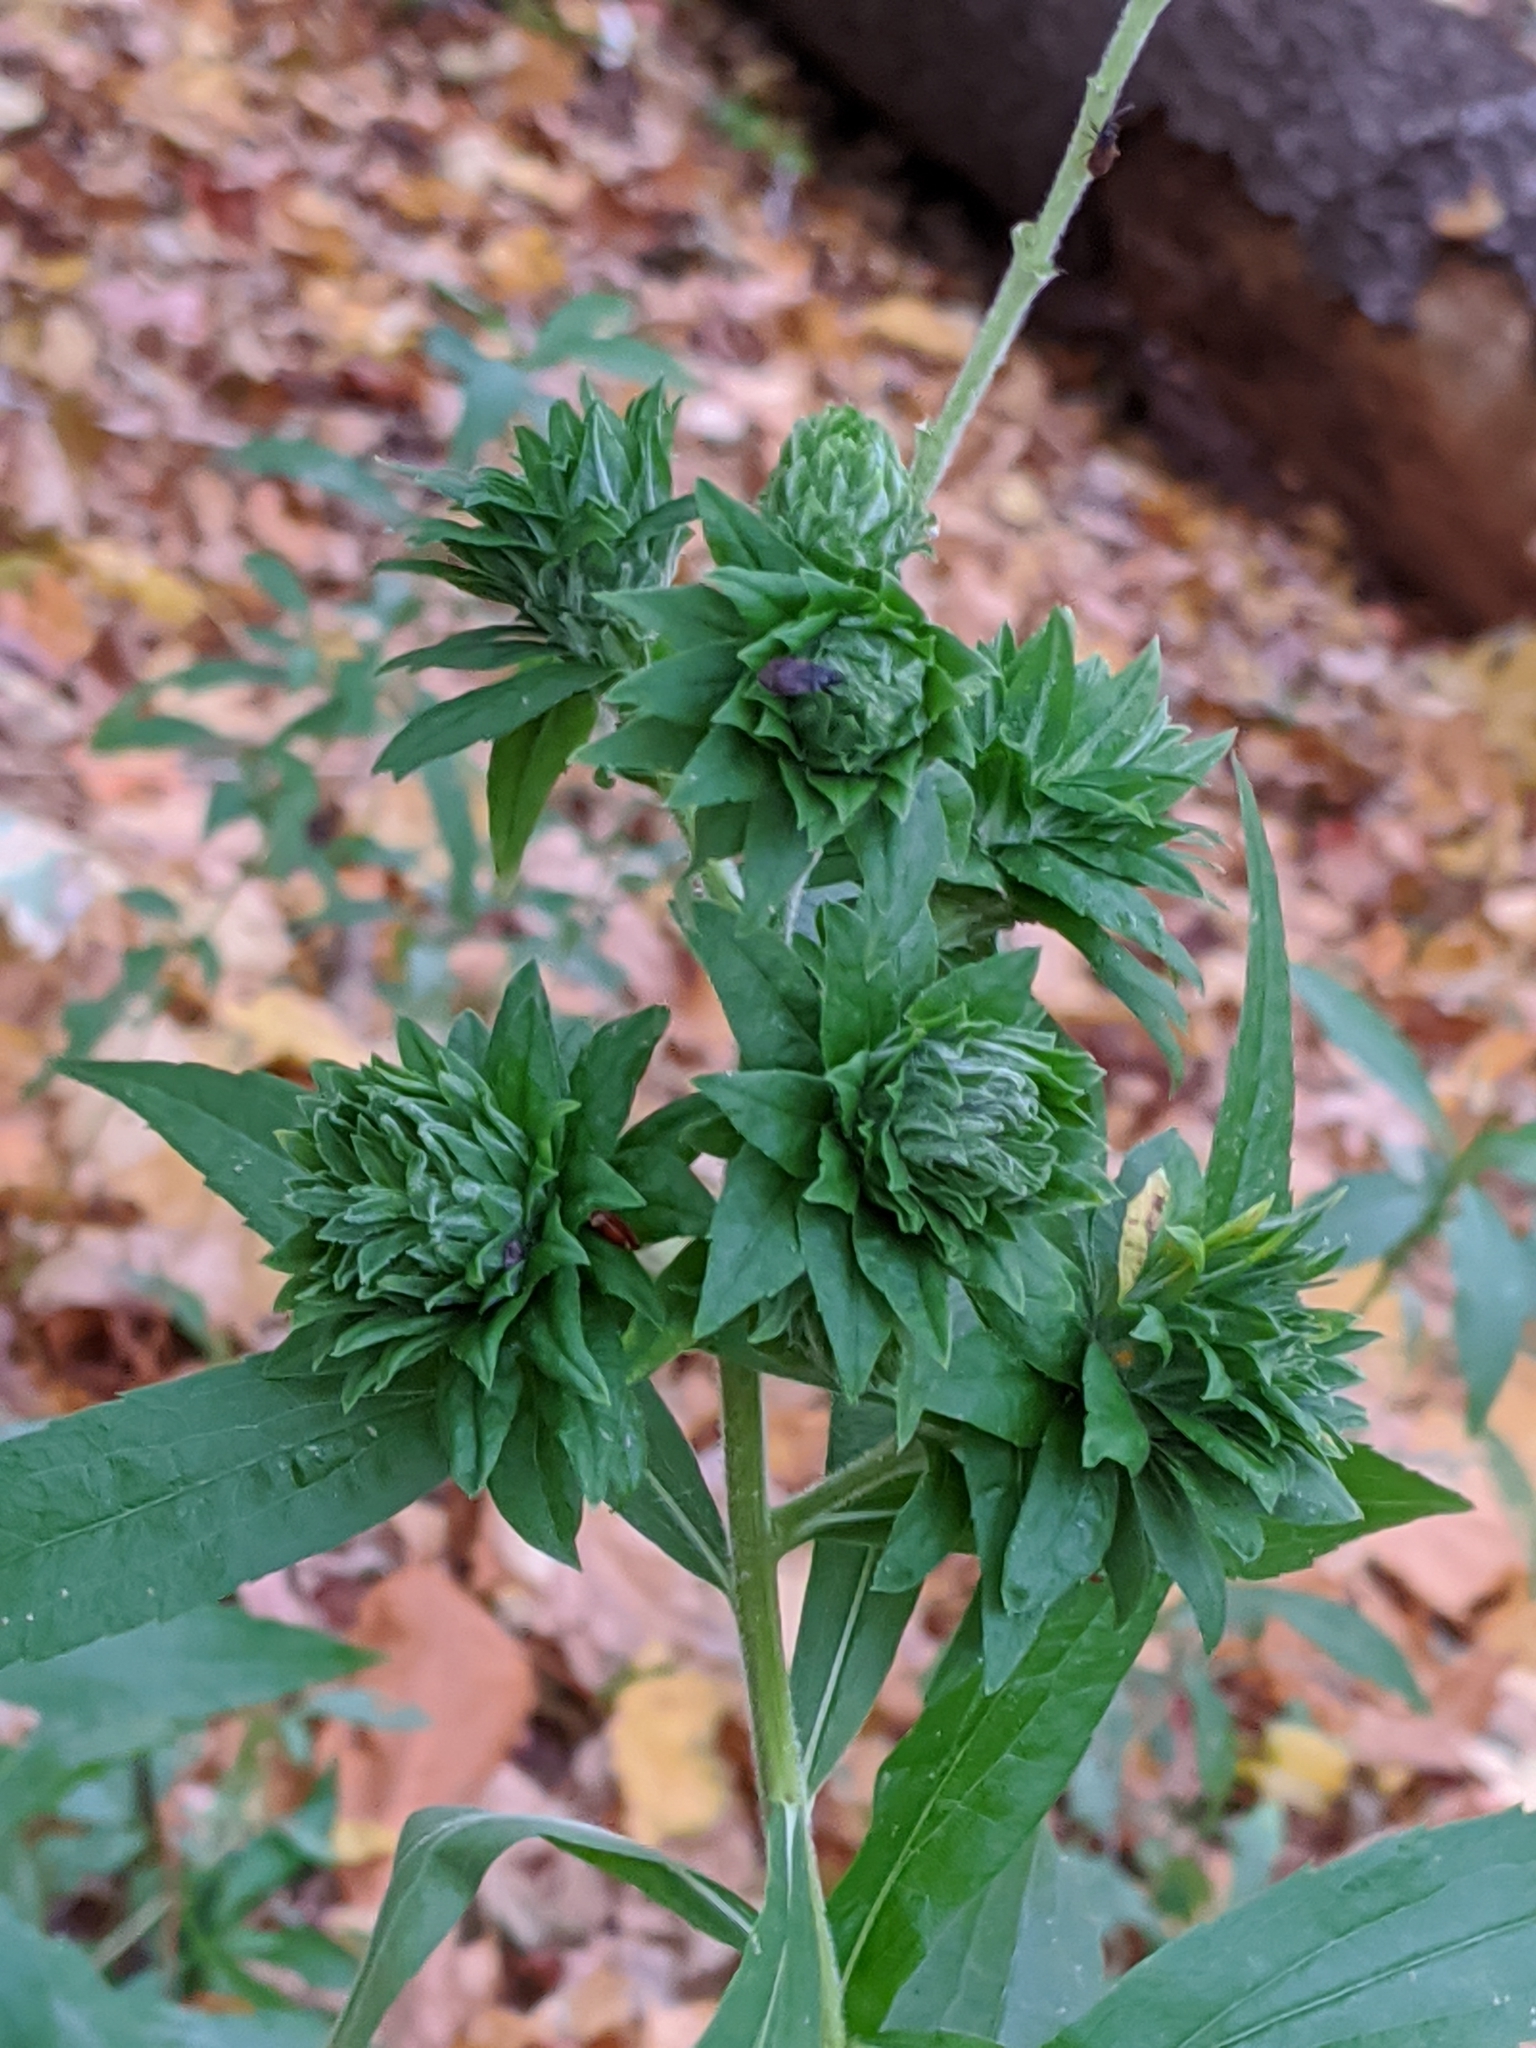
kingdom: Animalia
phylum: Arthropoda
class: Insecta
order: Diptera
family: Tephritidae
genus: Procecidochares
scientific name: Procecidochares atra
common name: Goldenrod brussels sprout gall fly
